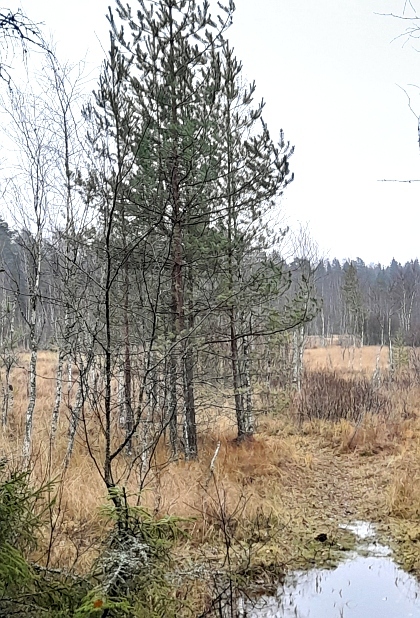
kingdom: Plantae
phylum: Tracheophyta
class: Pinopsida
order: Pinales
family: Pinaceae
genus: Pinus
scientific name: Pinus sylvestris
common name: Scots pine
